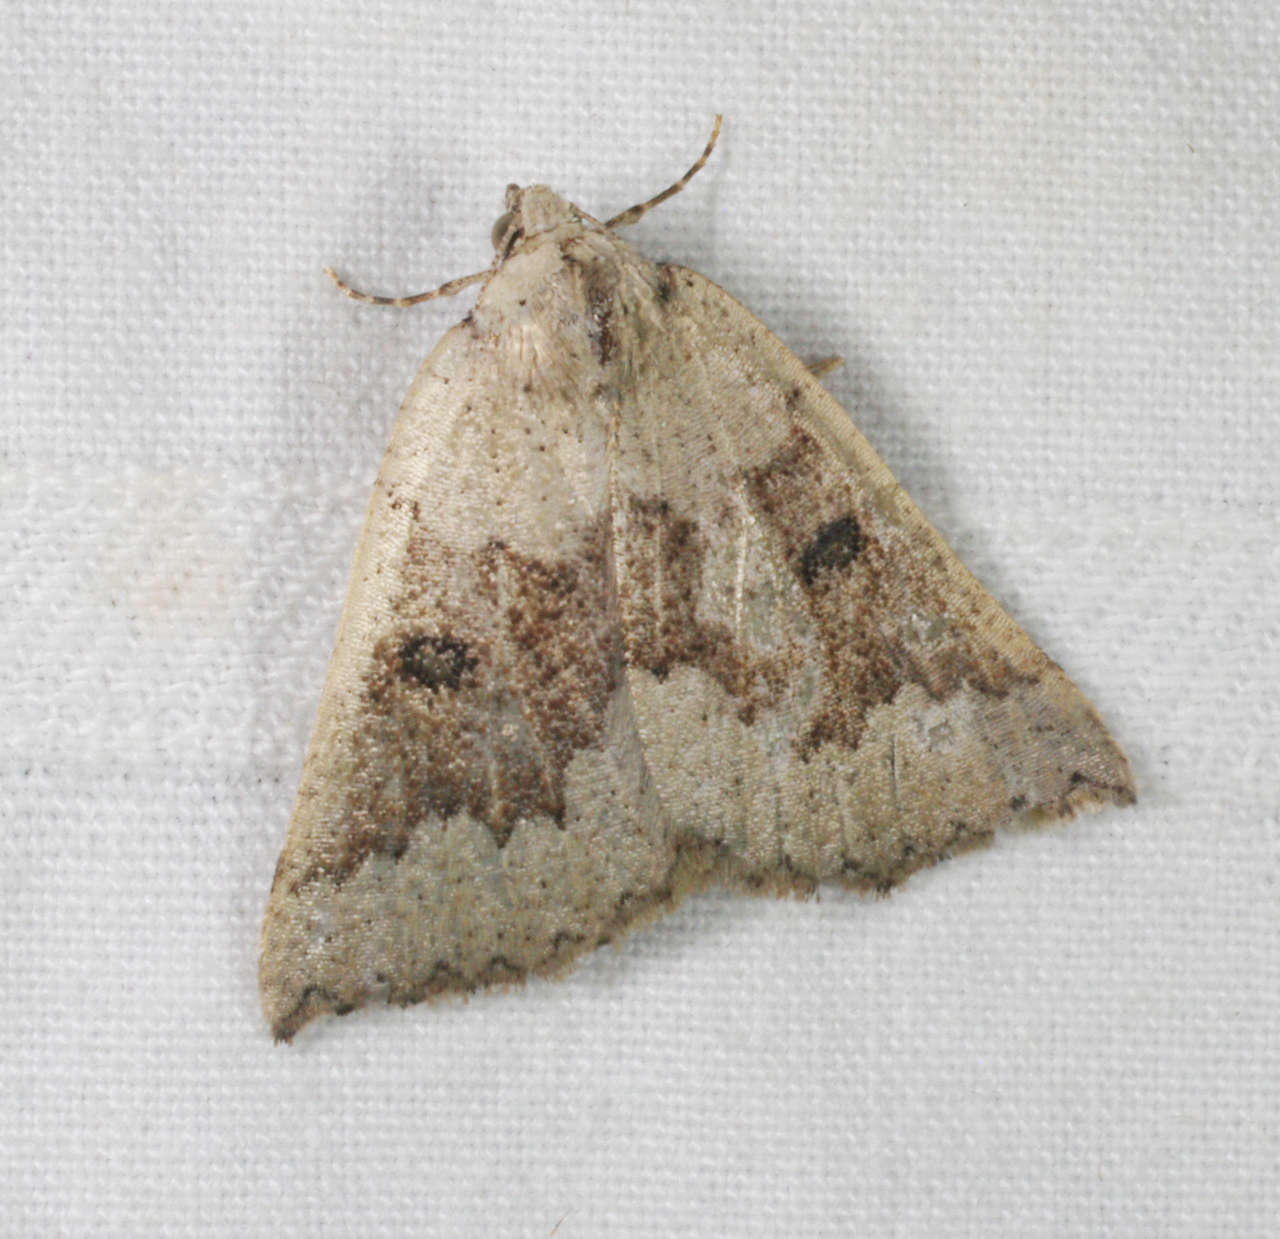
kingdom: Animalia
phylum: Arthropoda
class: Insecta
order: Lepidoptera
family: Geometridae
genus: Amelora
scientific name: Amelora mesocapna
